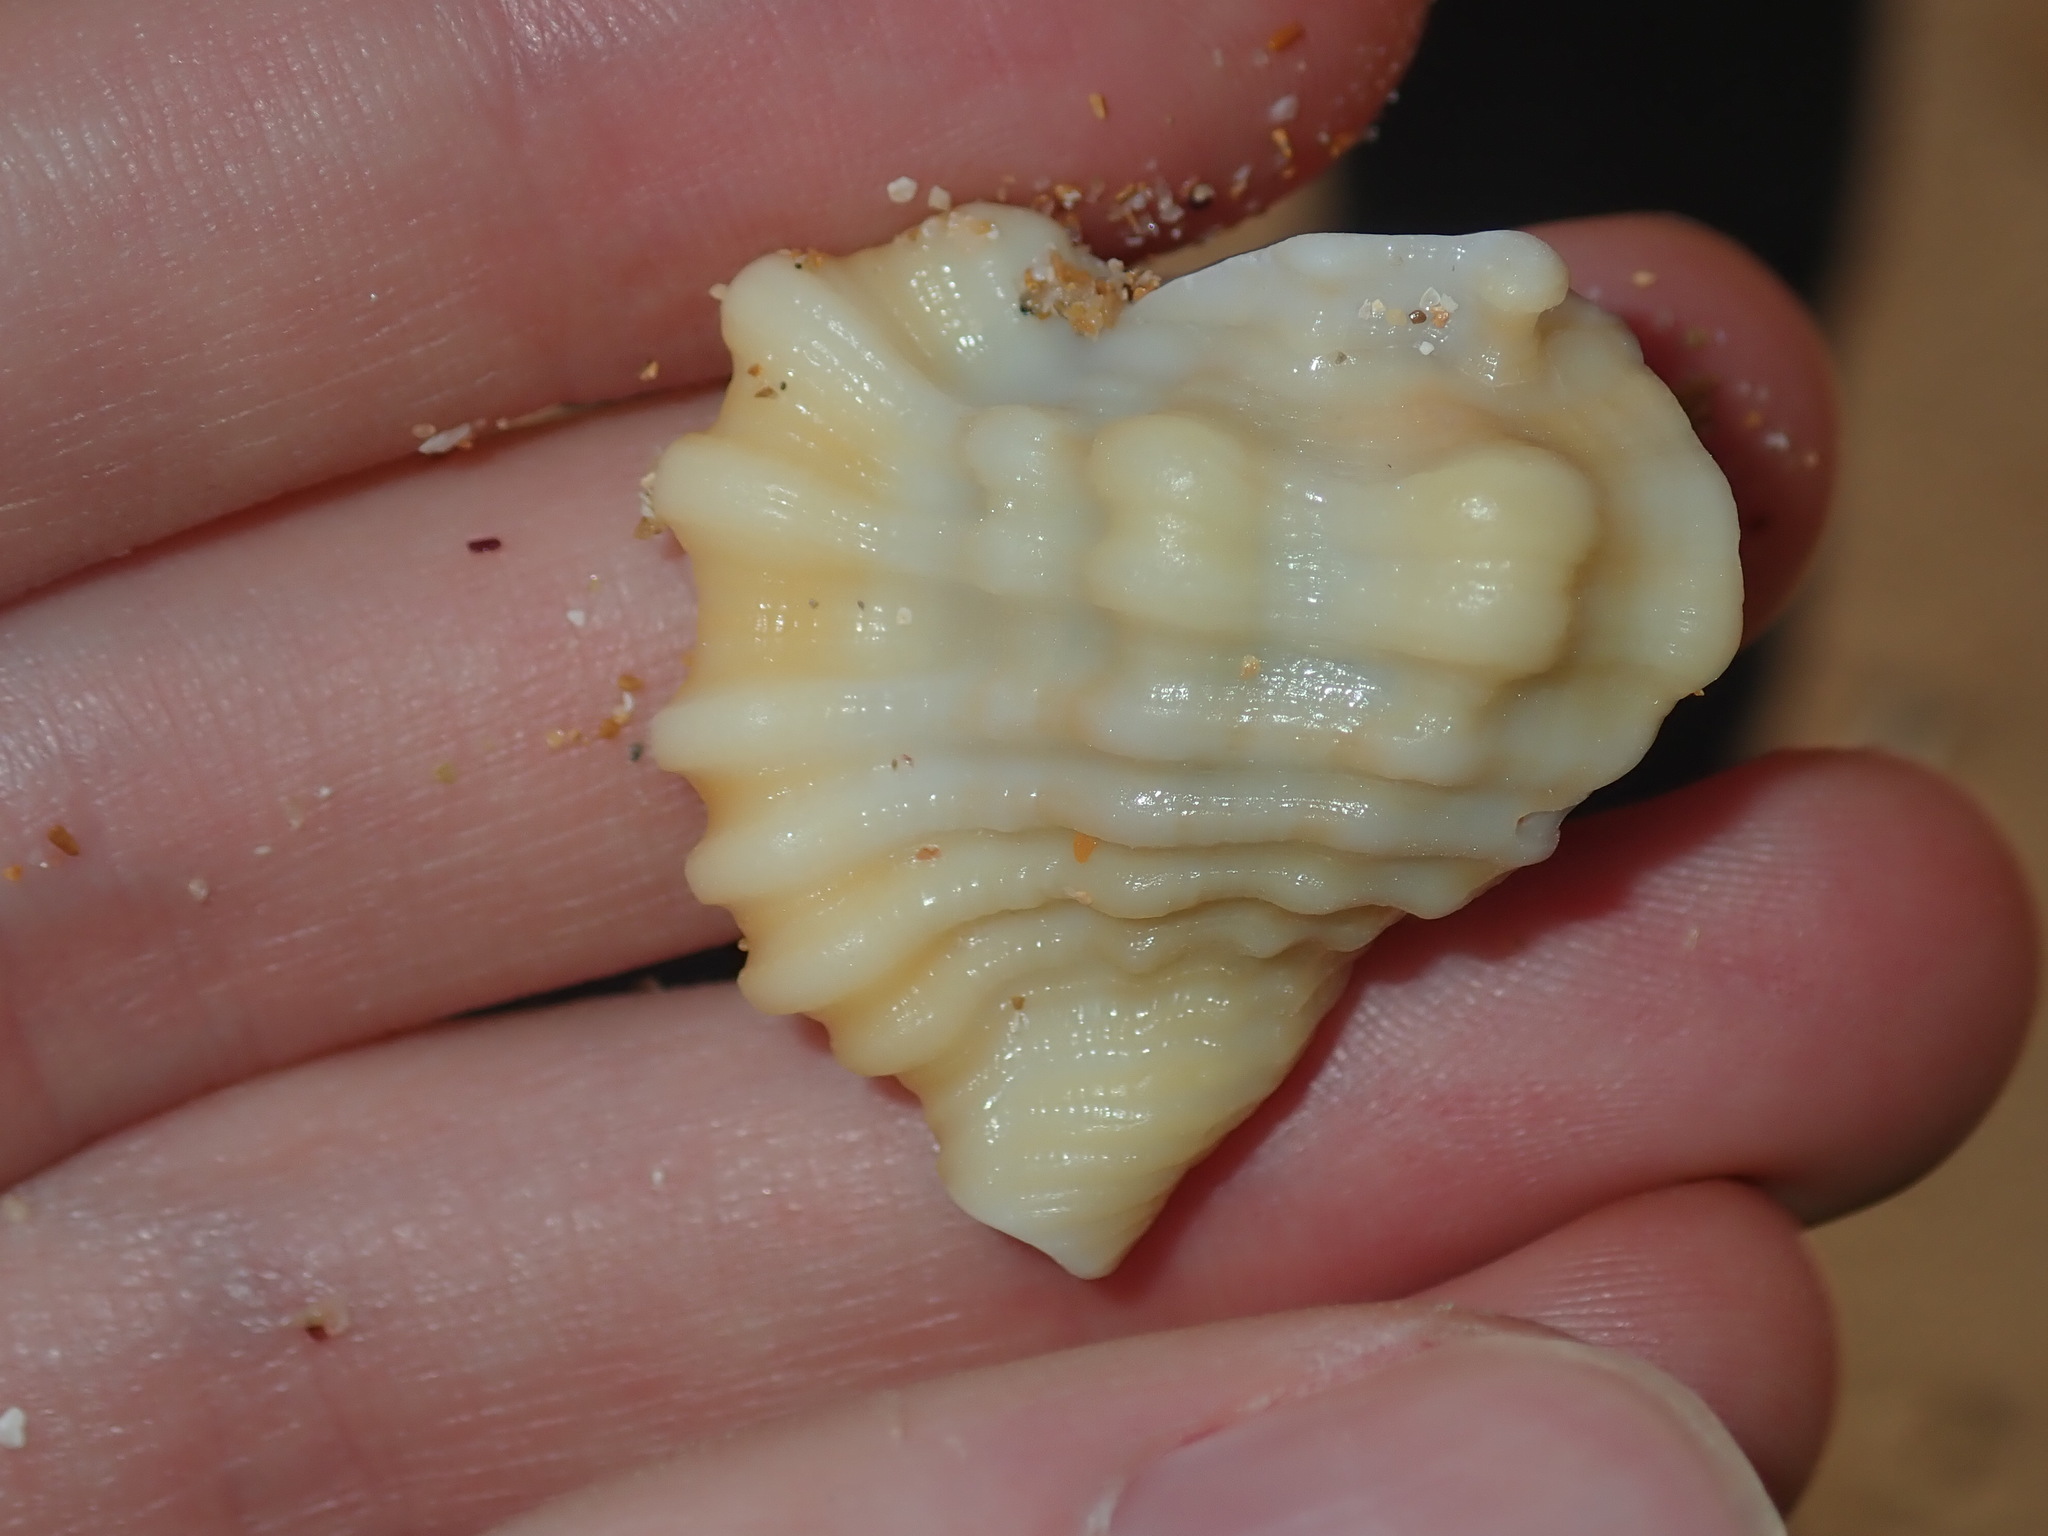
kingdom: Animalia
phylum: Mollusca
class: Gastropoda
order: Littorinimorpha
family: Cymatiidae
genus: Monoplex
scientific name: Monoplex exaratus
